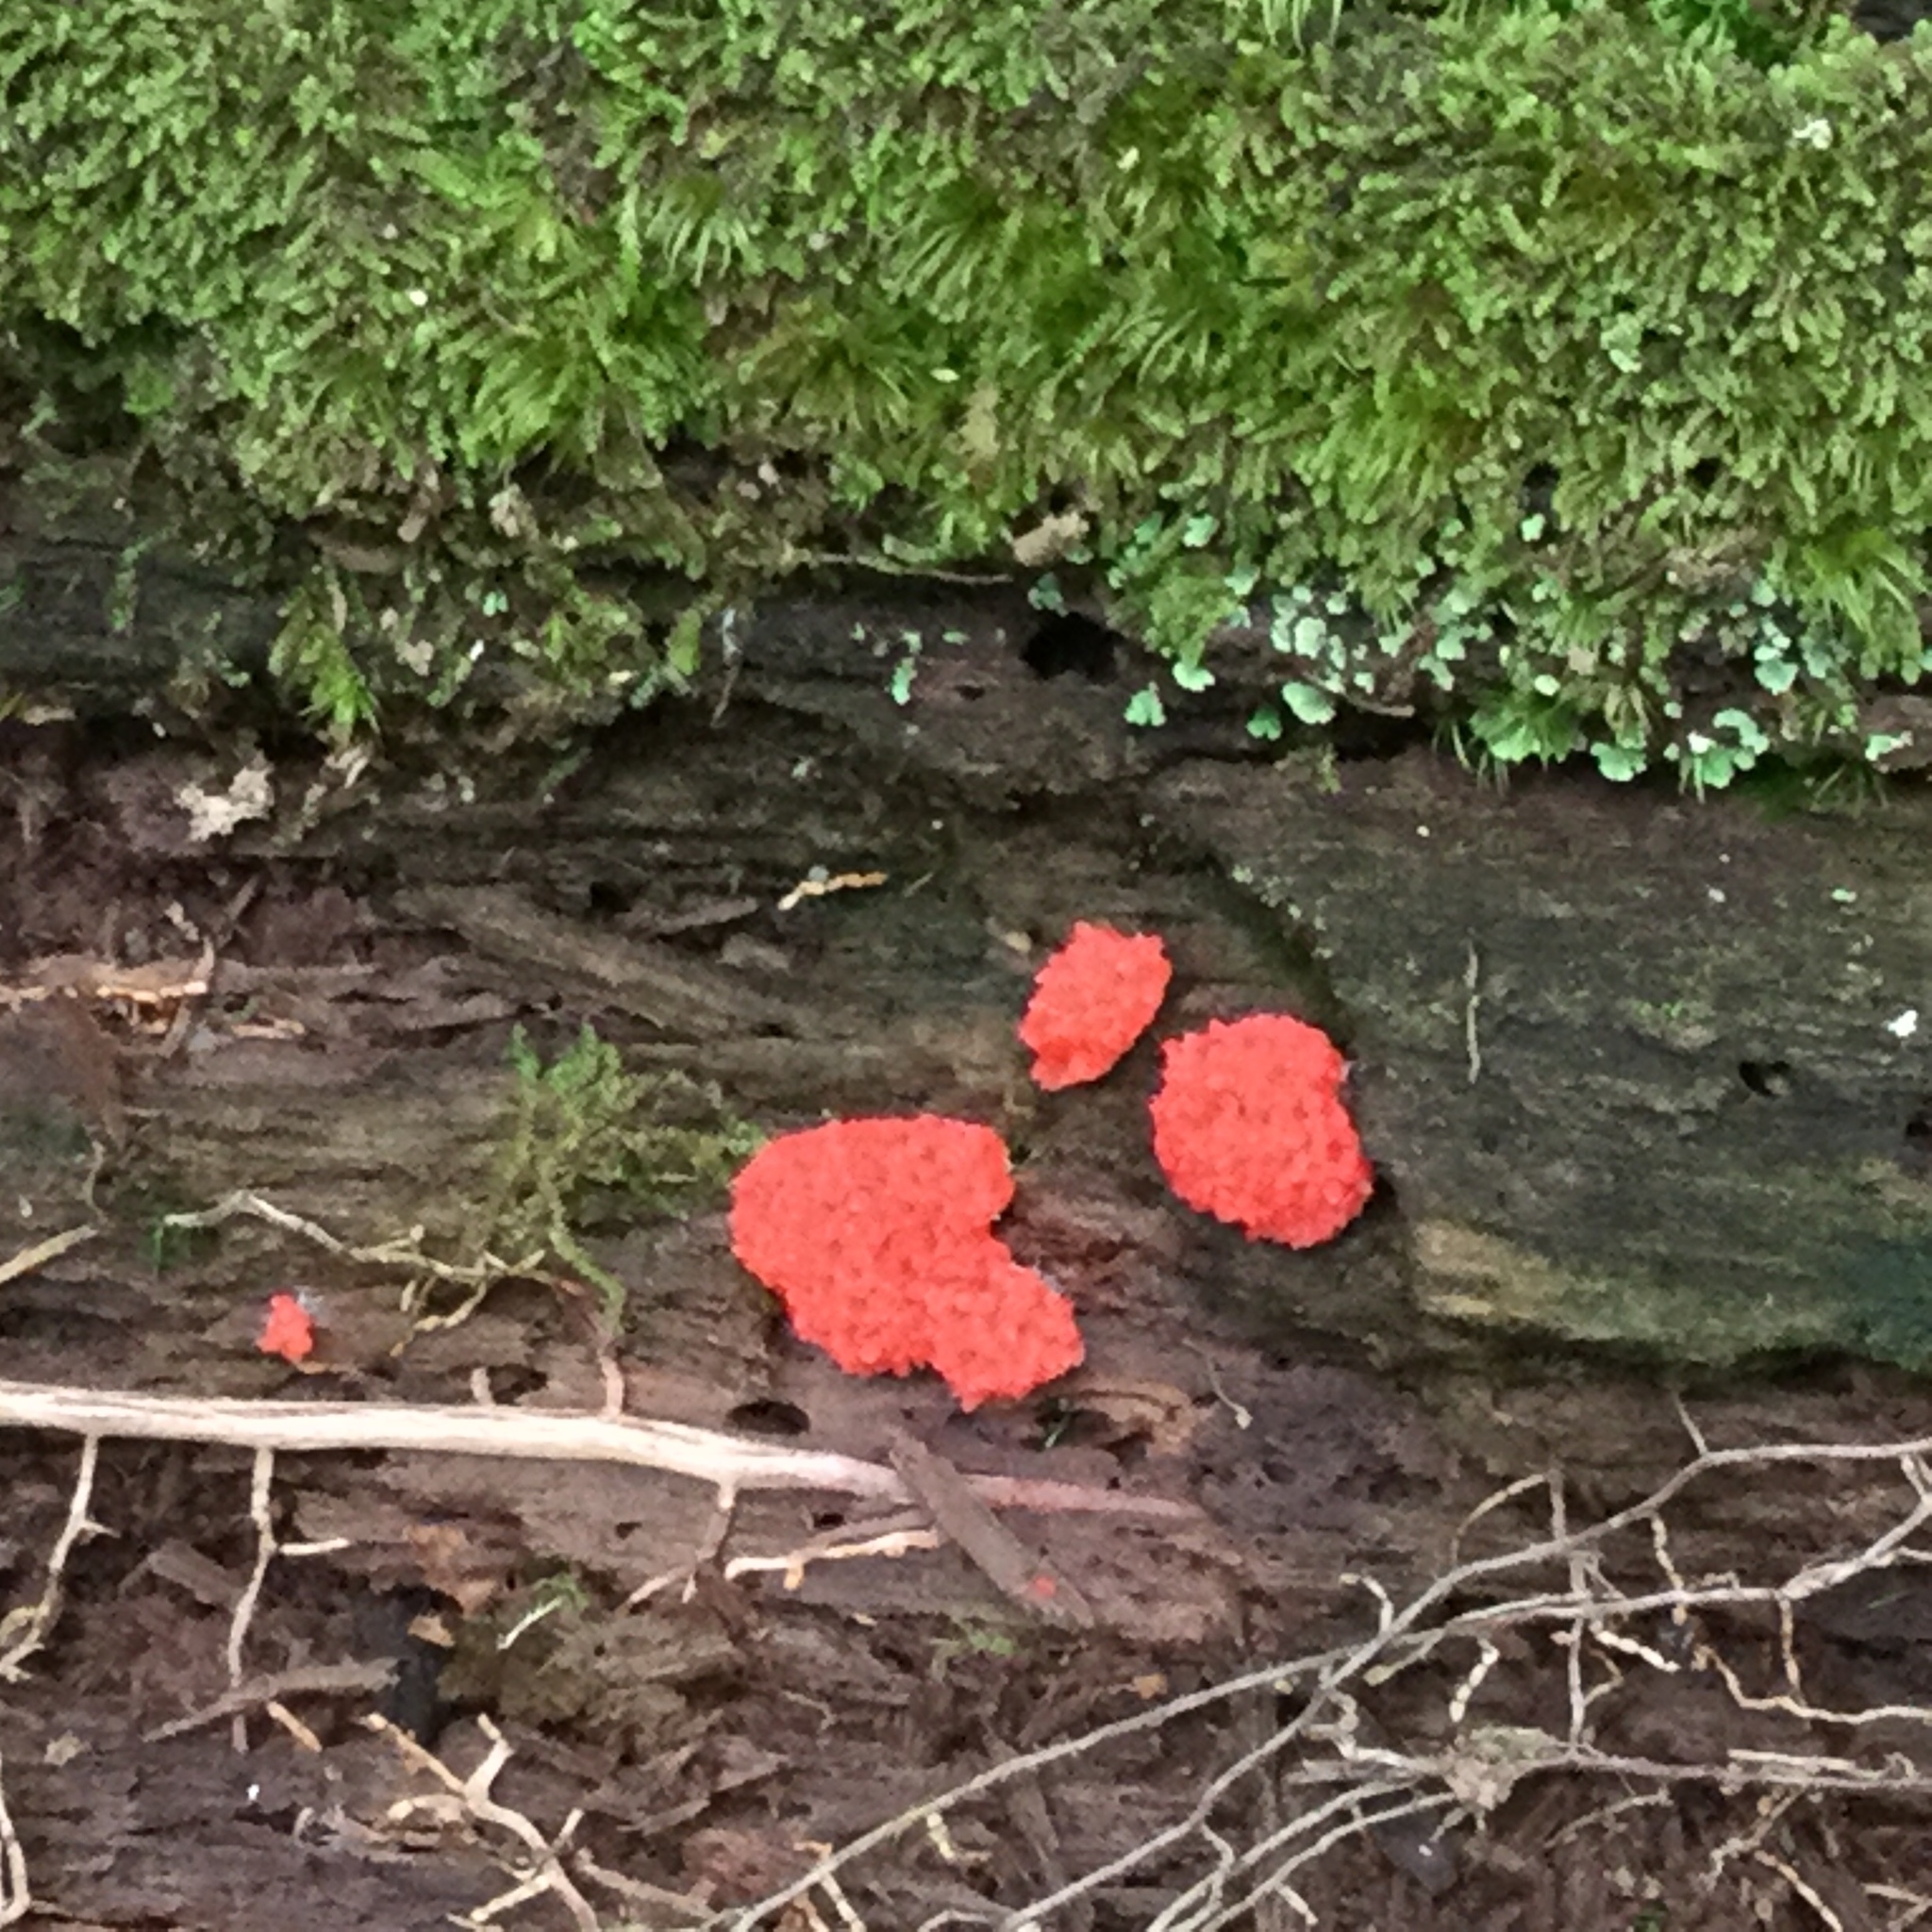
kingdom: Protozoa
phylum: Mycetozoa
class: Myxomycetes
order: Cribrariales
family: Tubiferaceae
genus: Tubifera
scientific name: Tubifera ferruginosa
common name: Red raspberry slime mold
